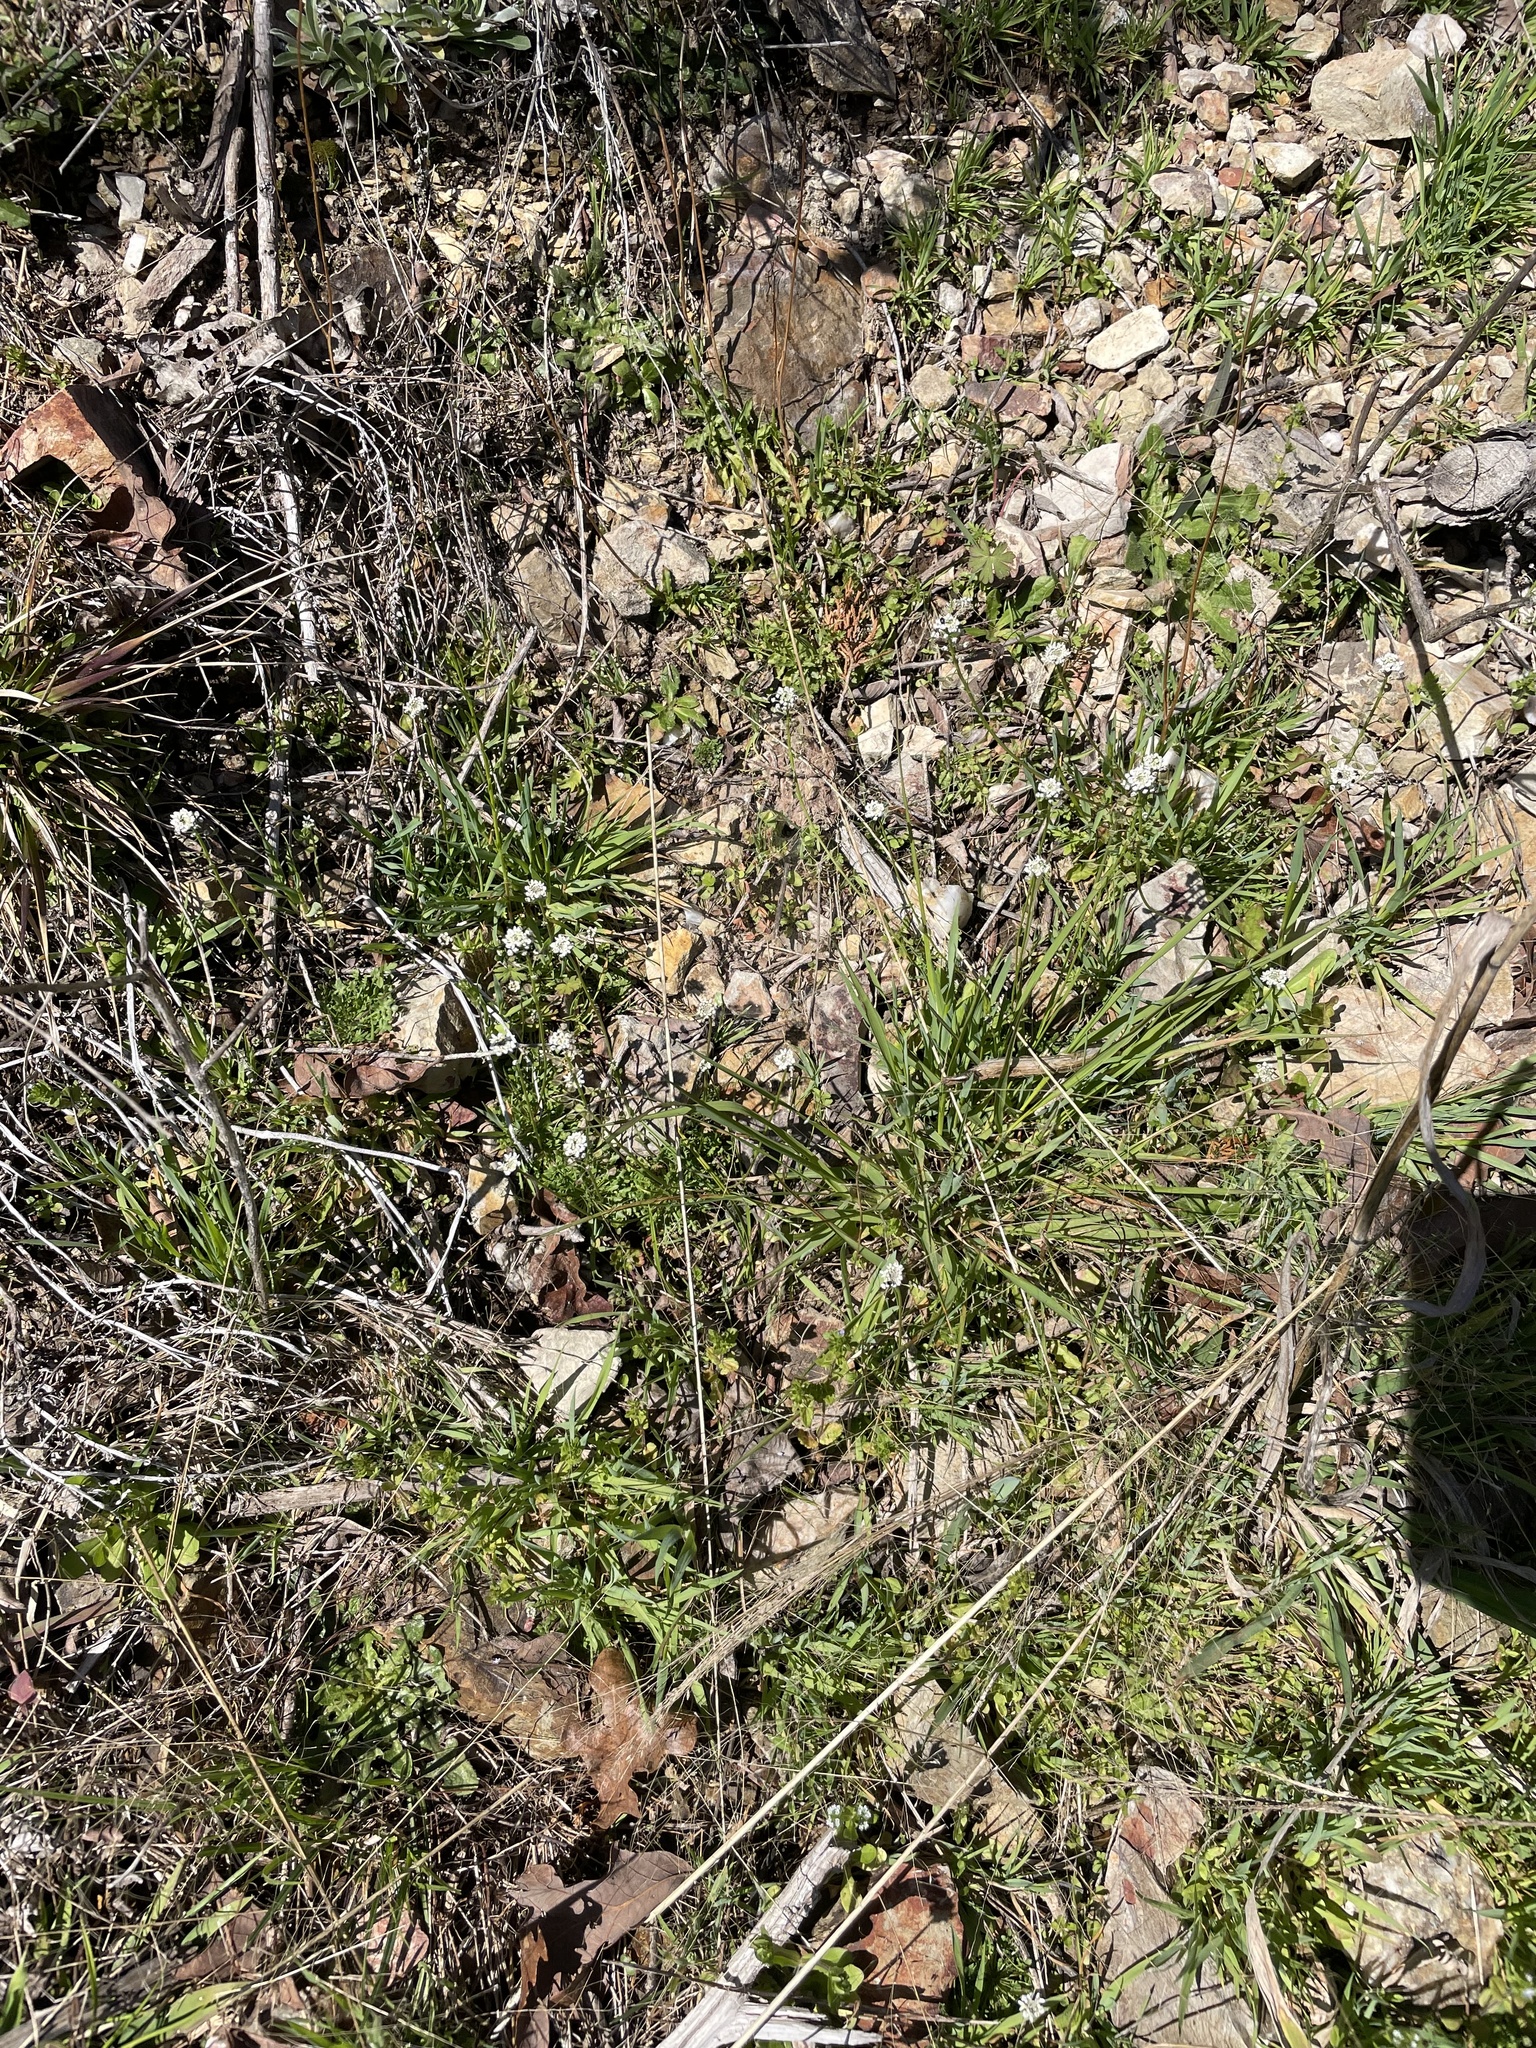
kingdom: Plantae
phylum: Tracheophyta
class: Magnoliopsida
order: Brassicales
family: Brassicaceae
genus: Teesdalia
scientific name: Teesdalia nudicaulis
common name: Shepherd's cress
